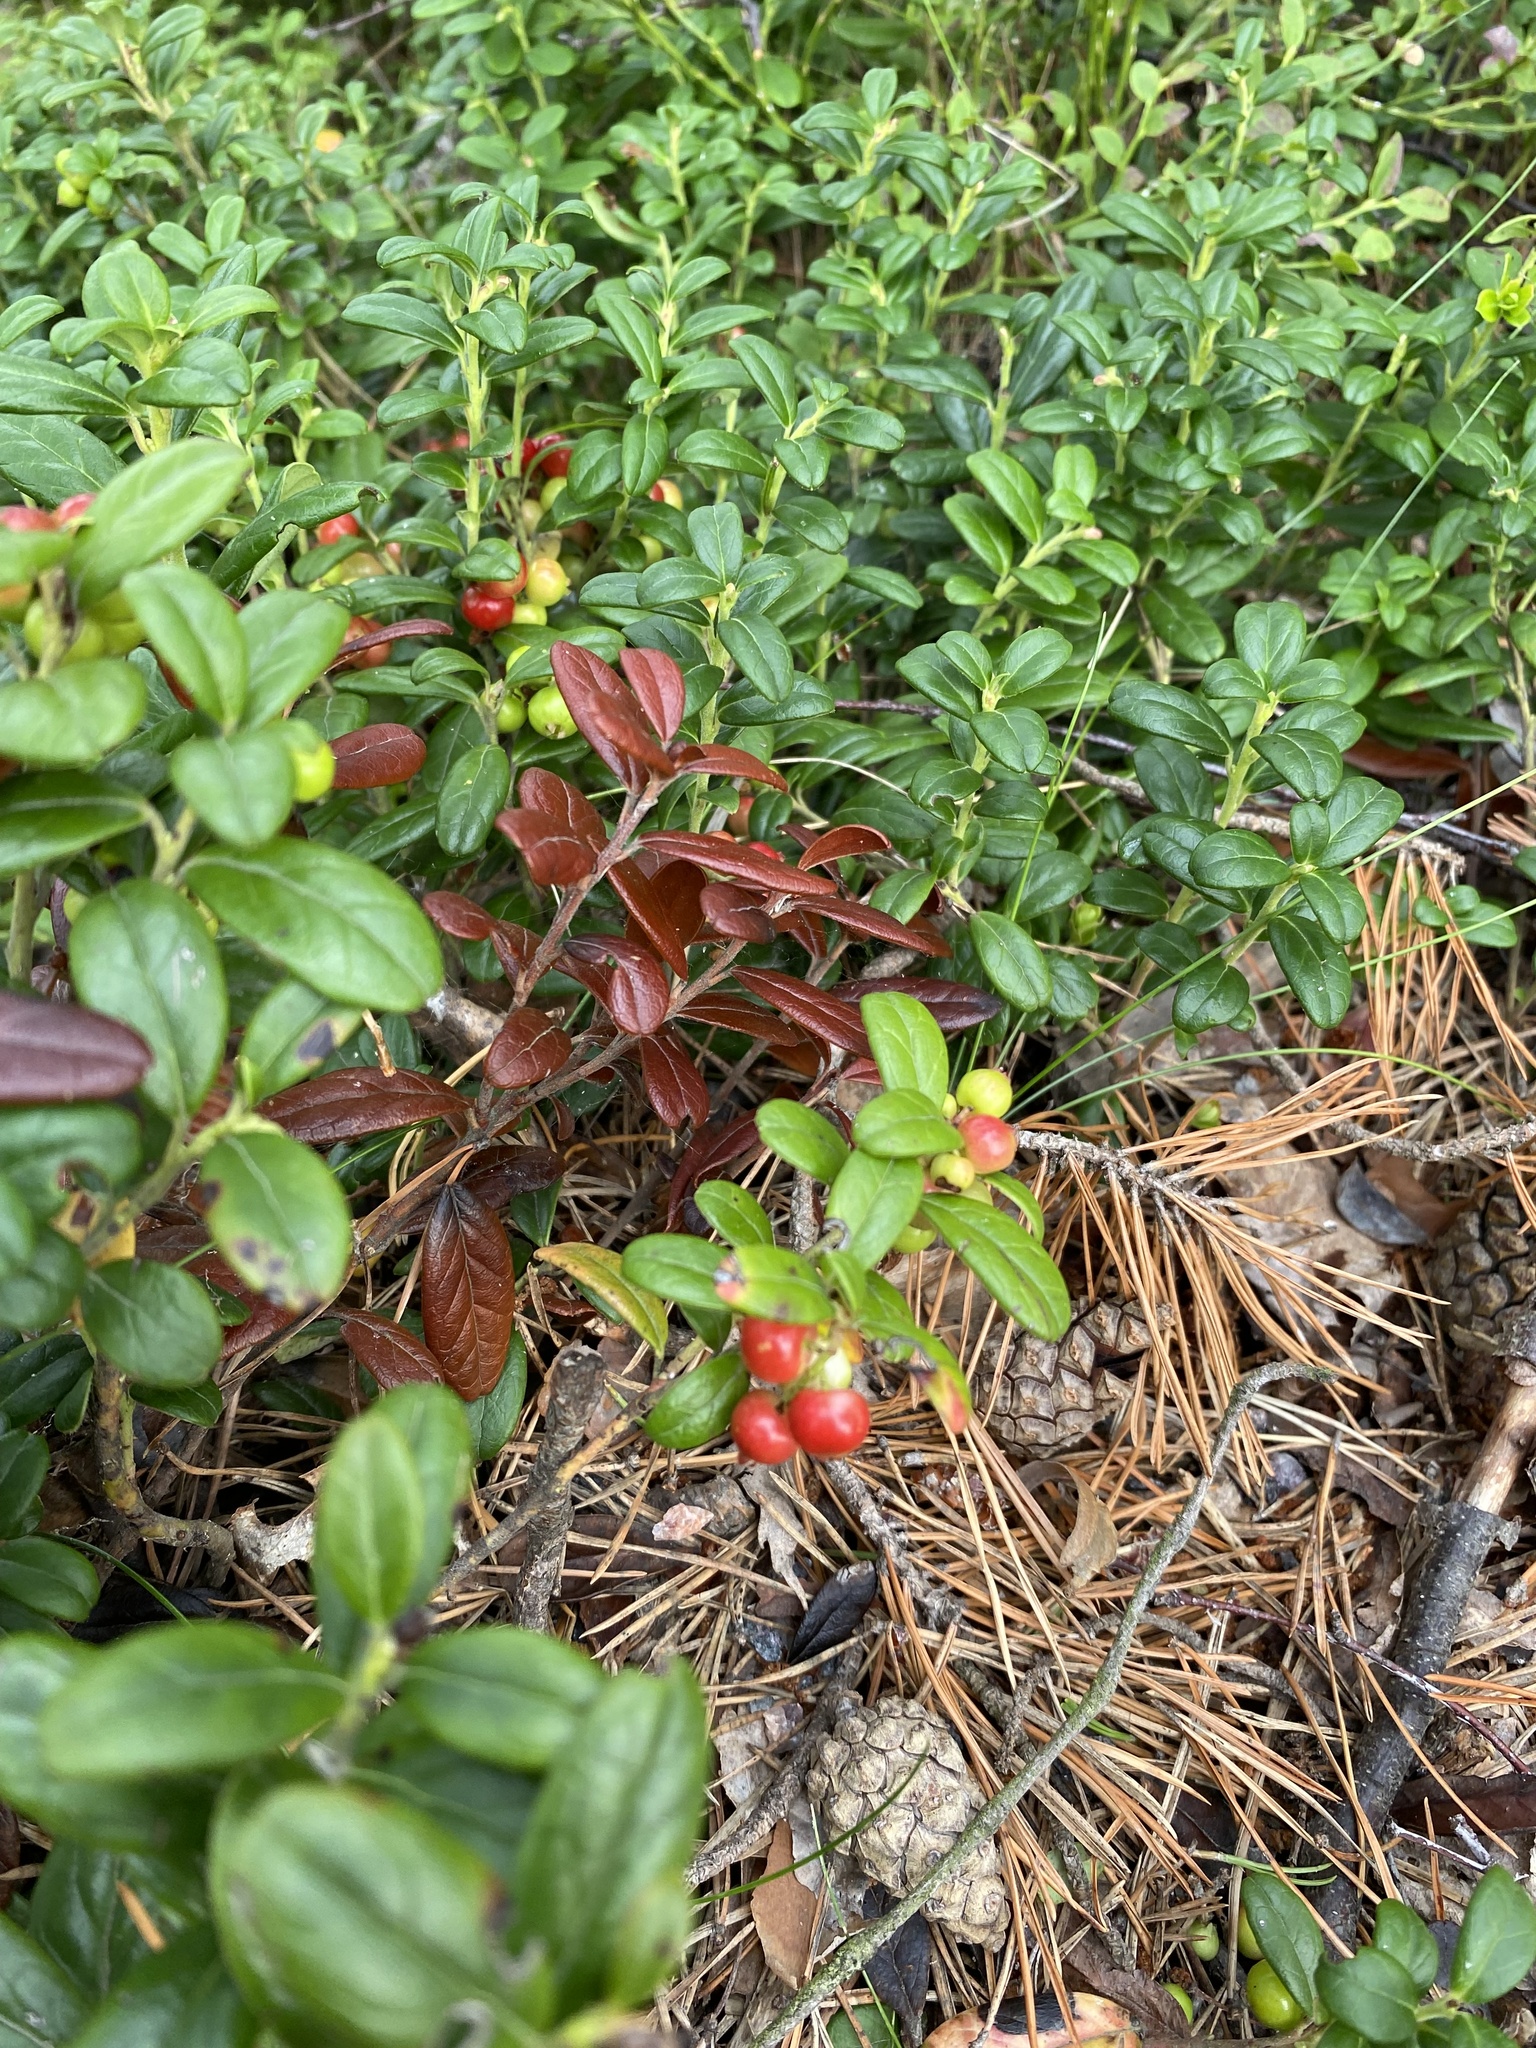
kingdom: Plantae
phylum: Tracheophyta
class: Magnoliopsida
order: Ericales
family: Ericaceae
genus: Vaccinium
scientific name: Vaccinium vitis-idaea
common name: Cowberry
